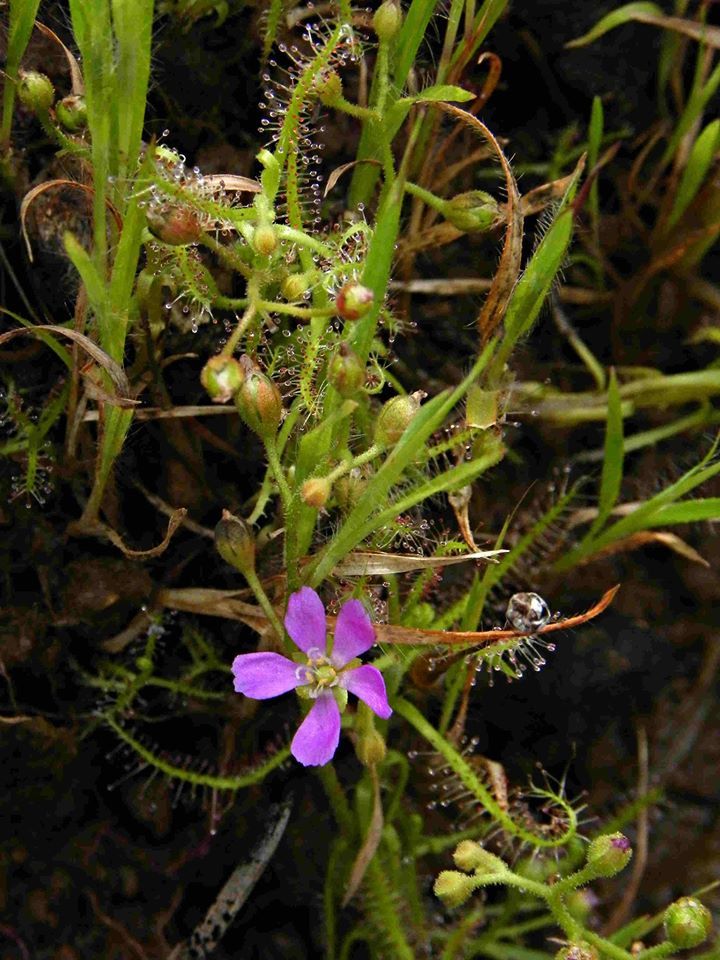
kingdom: Plantae
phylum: Tracheophyta
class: Magnoliopsida
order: Caryophyllales
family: Droseraceae
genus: Drosera
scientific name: Drosera indica
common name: Indian sundew
